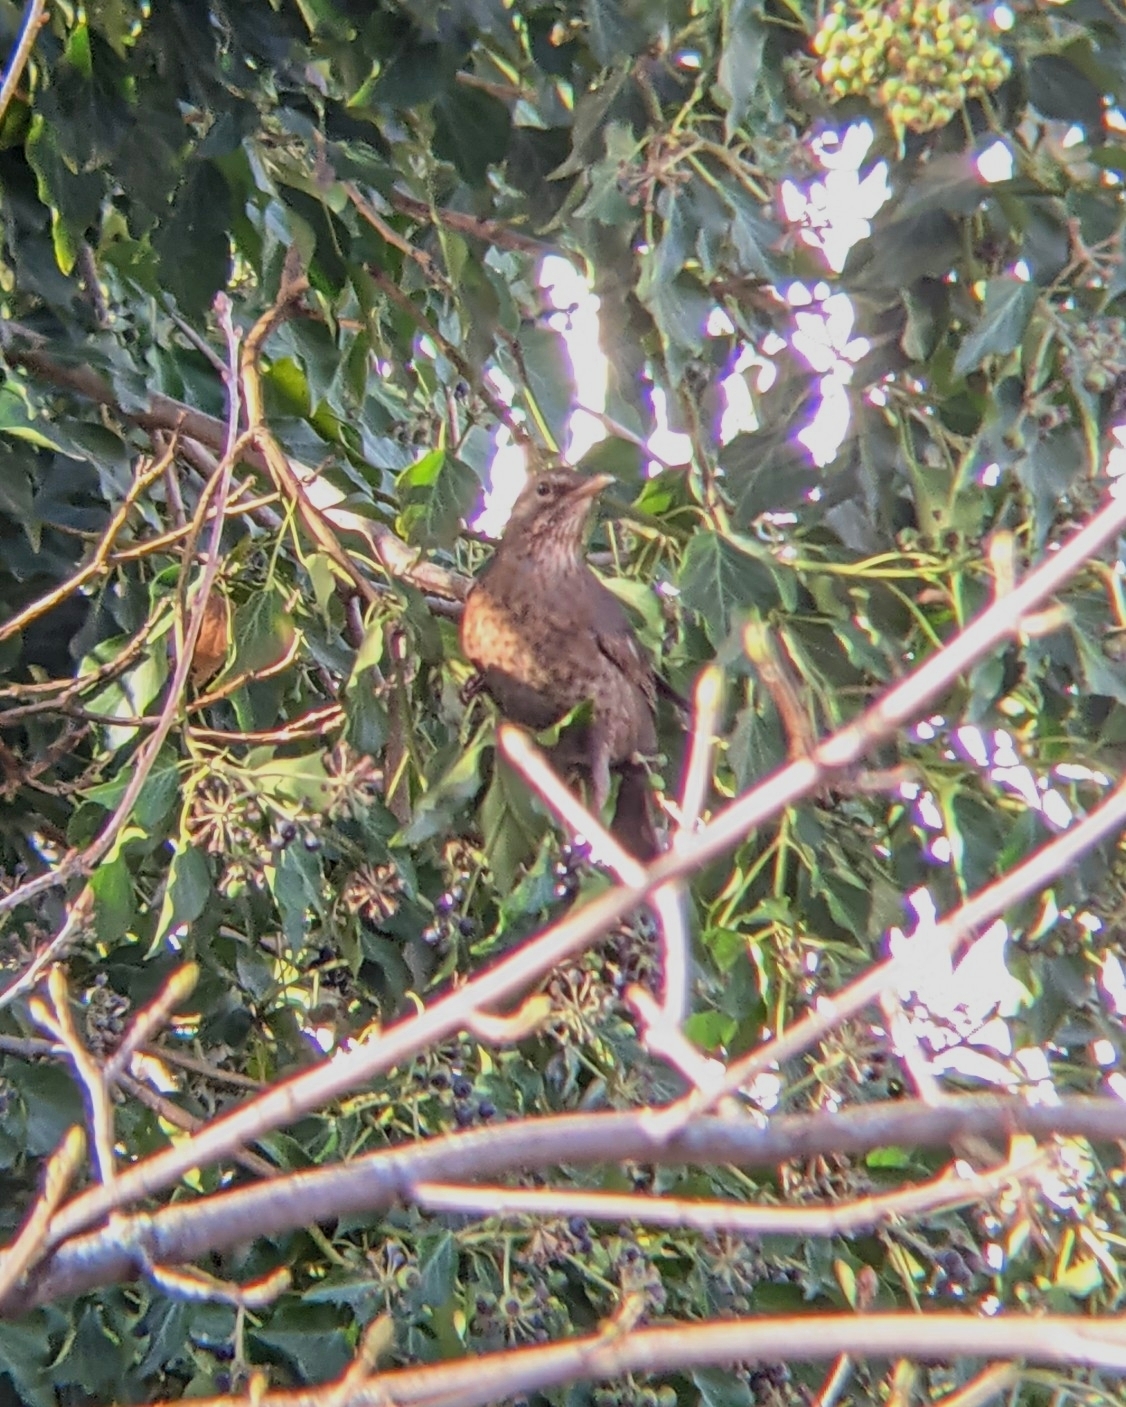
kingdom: Animalia
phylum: Chordata
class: Aves
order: Passeriformes
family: Turdidae
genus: Turdus
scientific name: Turdus merula
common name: Common blackbird
